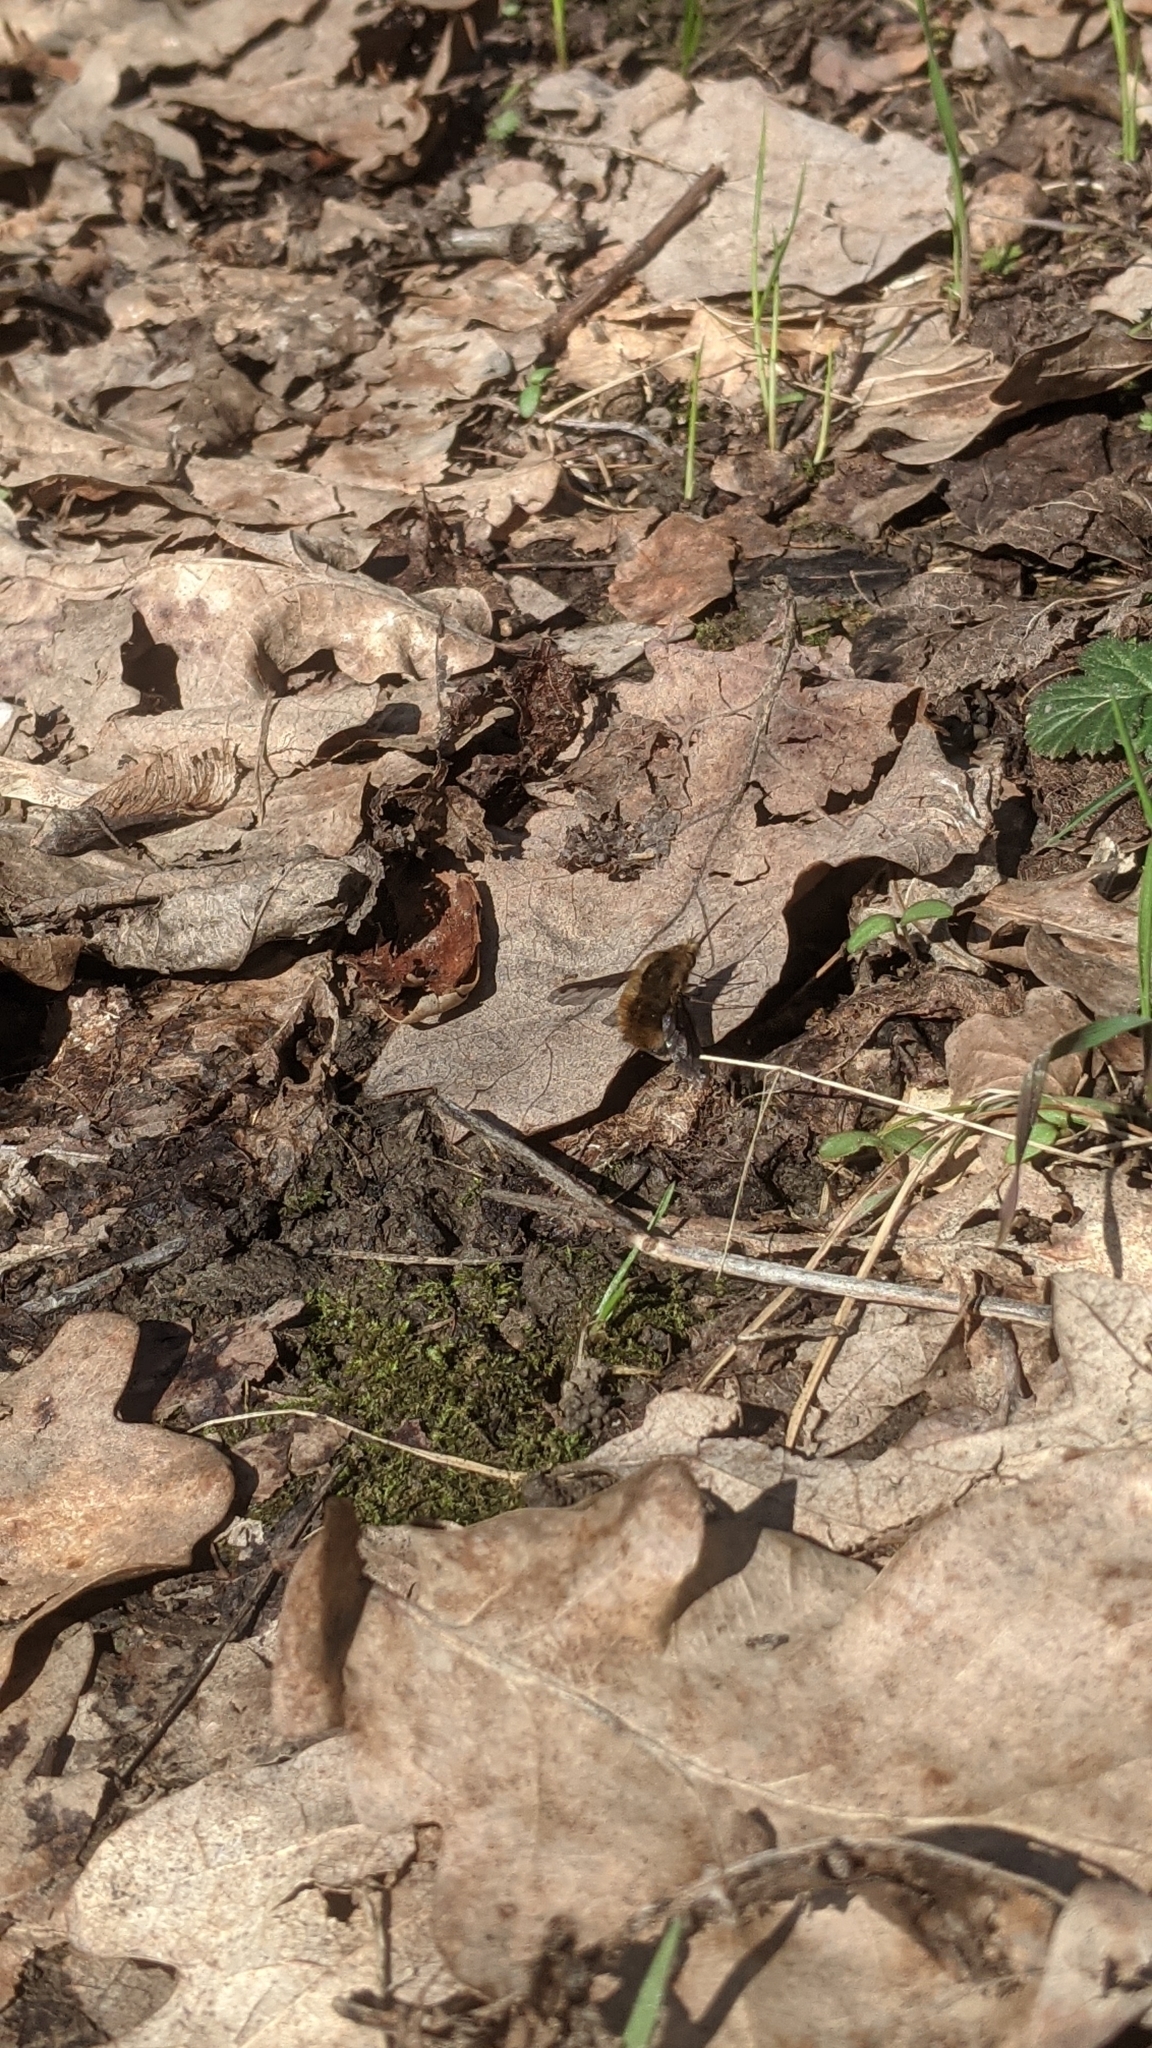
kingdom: Animalia
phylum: Arthropoda
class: Insecta
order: Diptera
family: Bombyliidae
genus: Bombylius
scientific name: Bombylius major
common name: Bee fly
